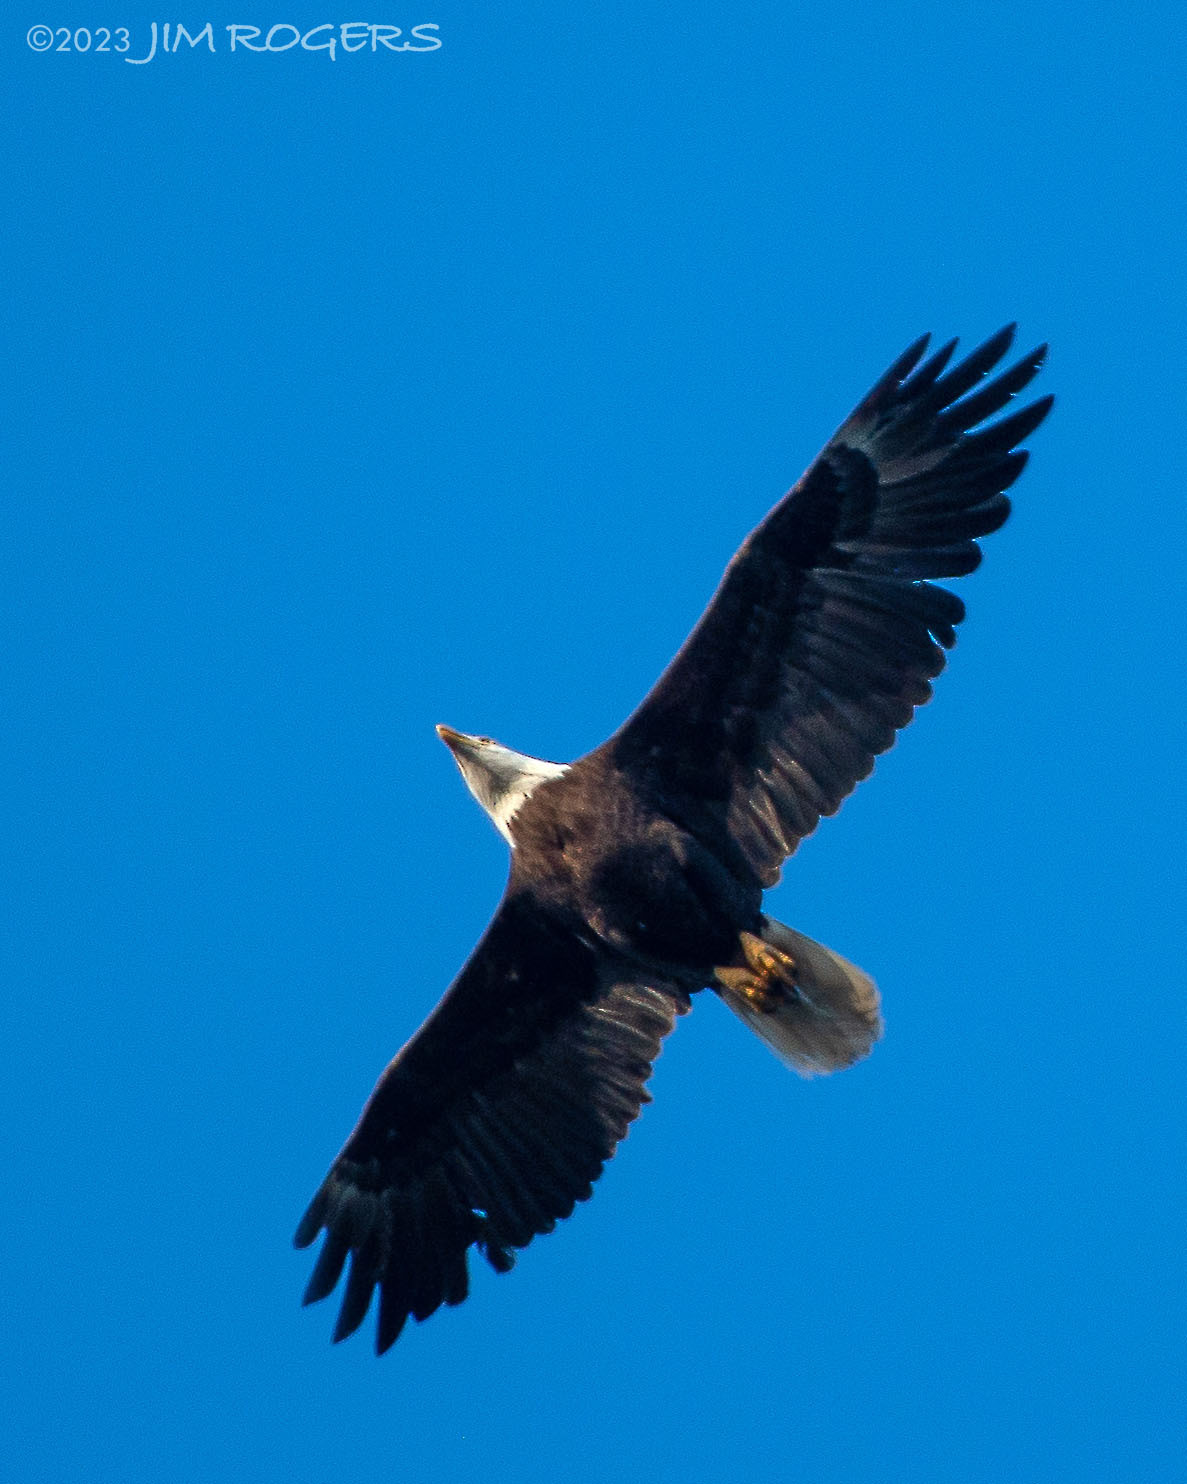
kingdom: Animalia
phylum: Chordata
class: Aves
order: Accipitriformes
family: Accipitridae
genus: Haliaeetus
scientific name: Haliaeetus leucocephalus
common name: Bald eagle
